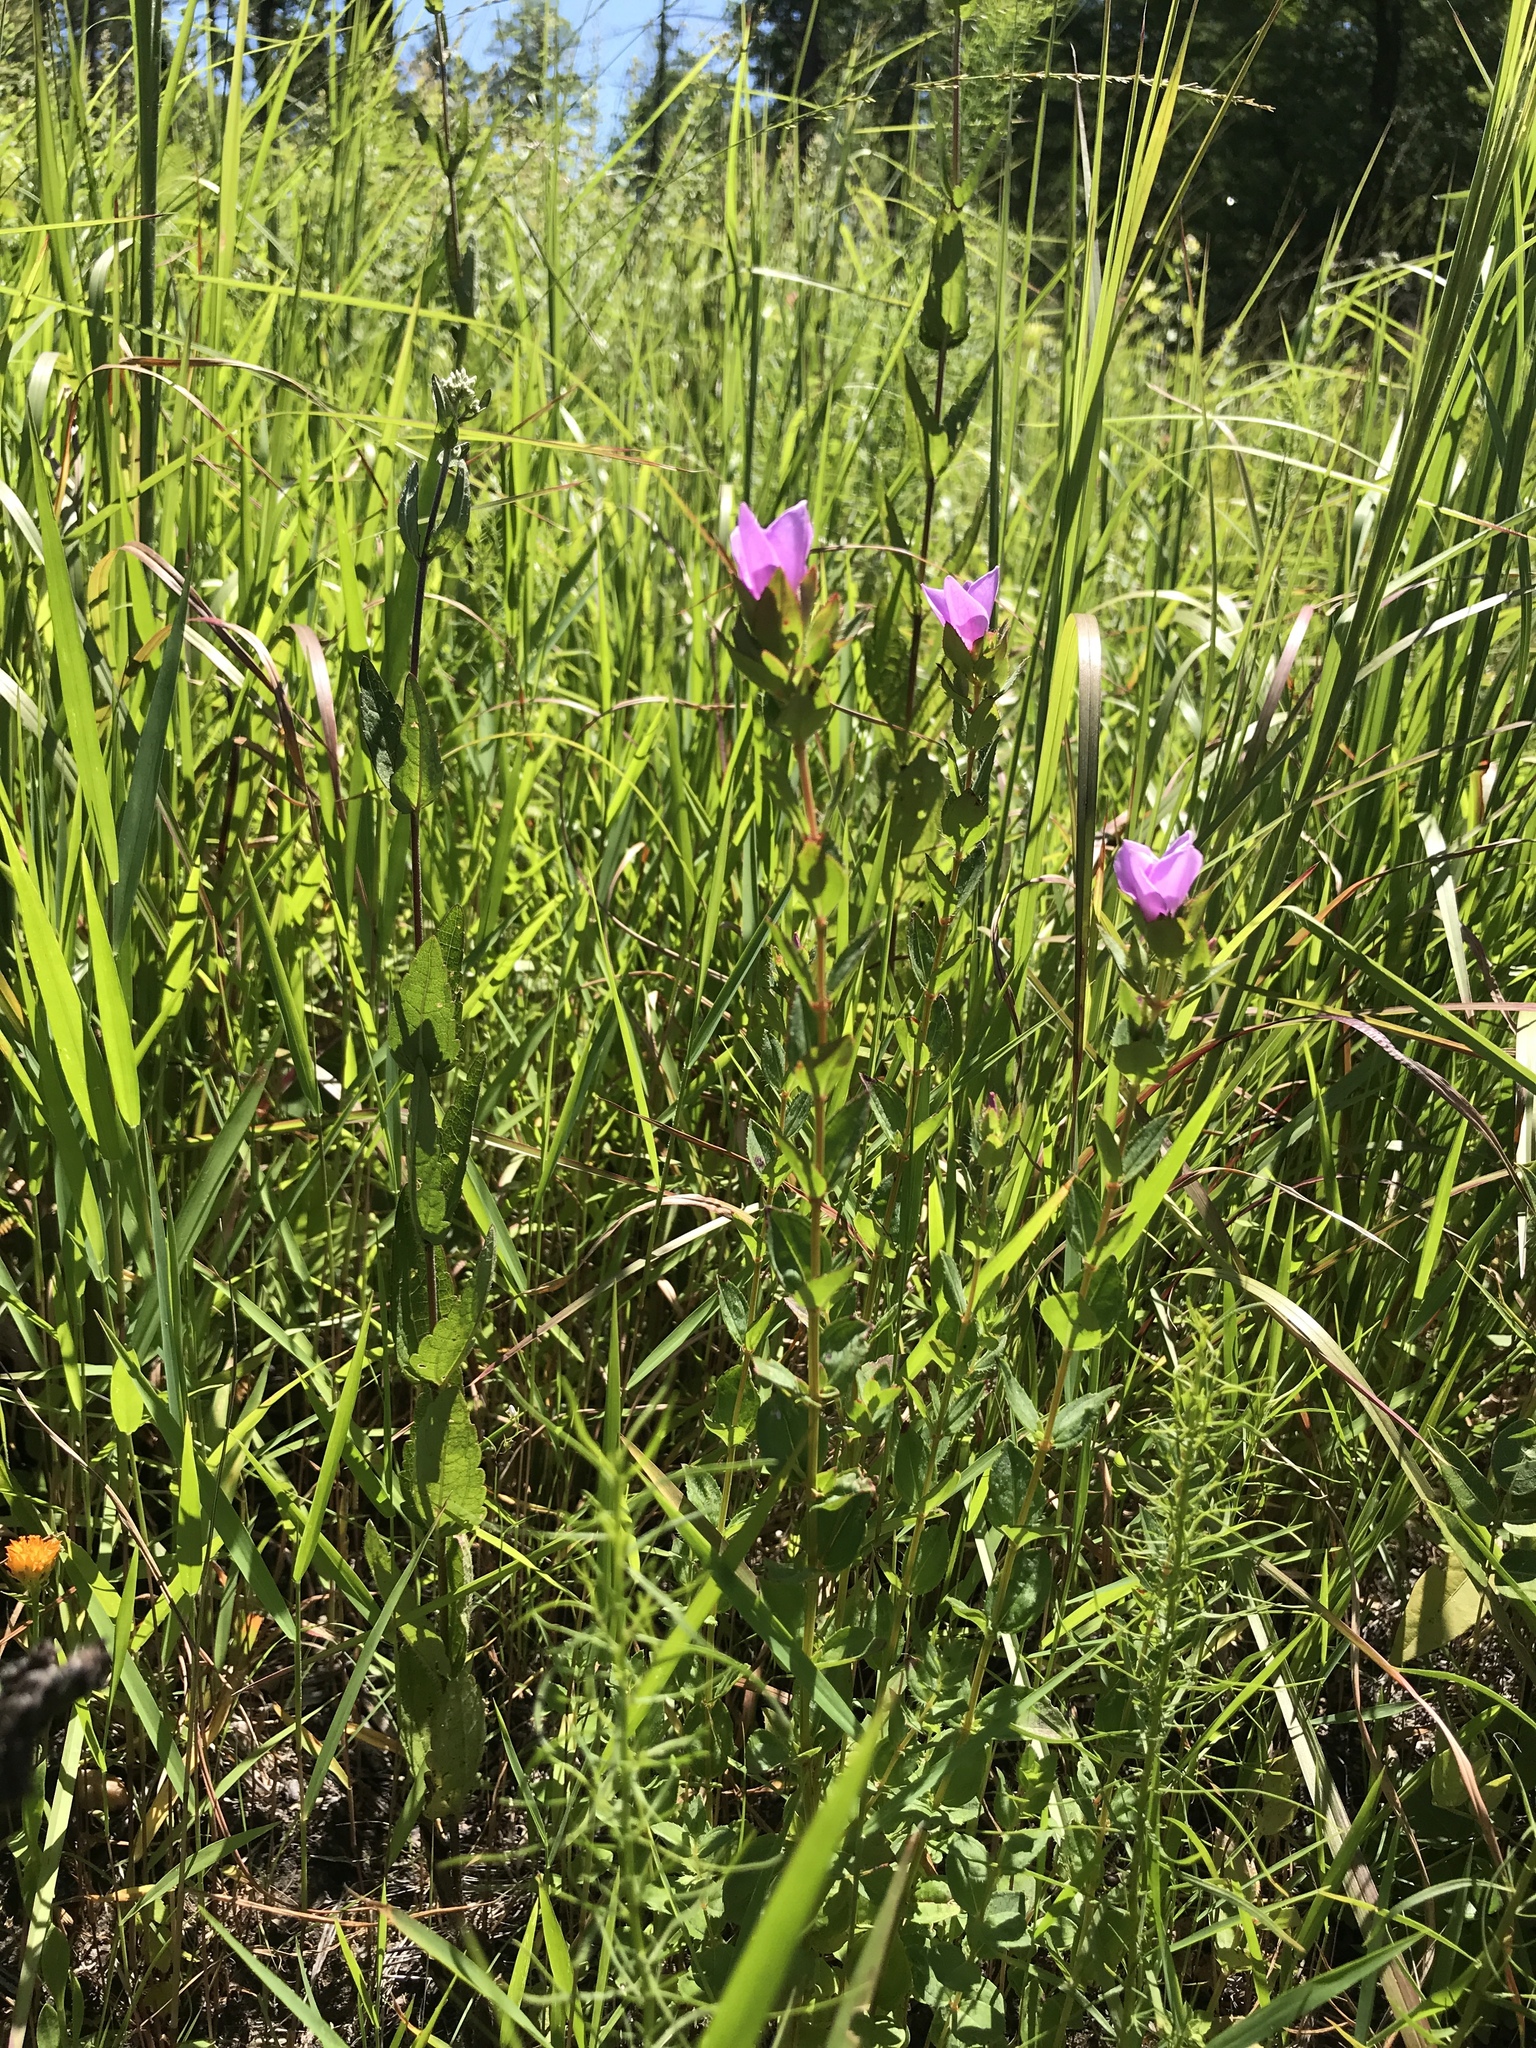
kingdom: Plantae
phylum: Tracheophyta
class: Magnoliopsida
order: Myrtales
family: Melastomataceae
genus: Rhexia
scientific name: Rhexia petiolata
